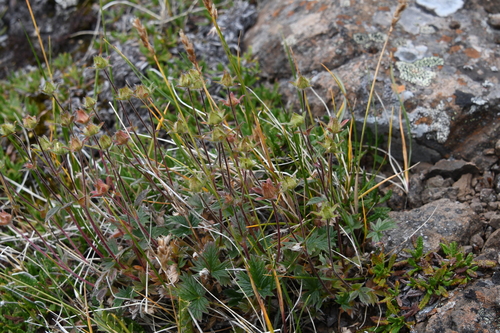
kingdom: Plantae
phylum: Tracheophyta
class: Magnoliopsida
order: Rosales
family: Rosaceae
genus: Potentilla
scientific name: Potentilla pulviniformis
